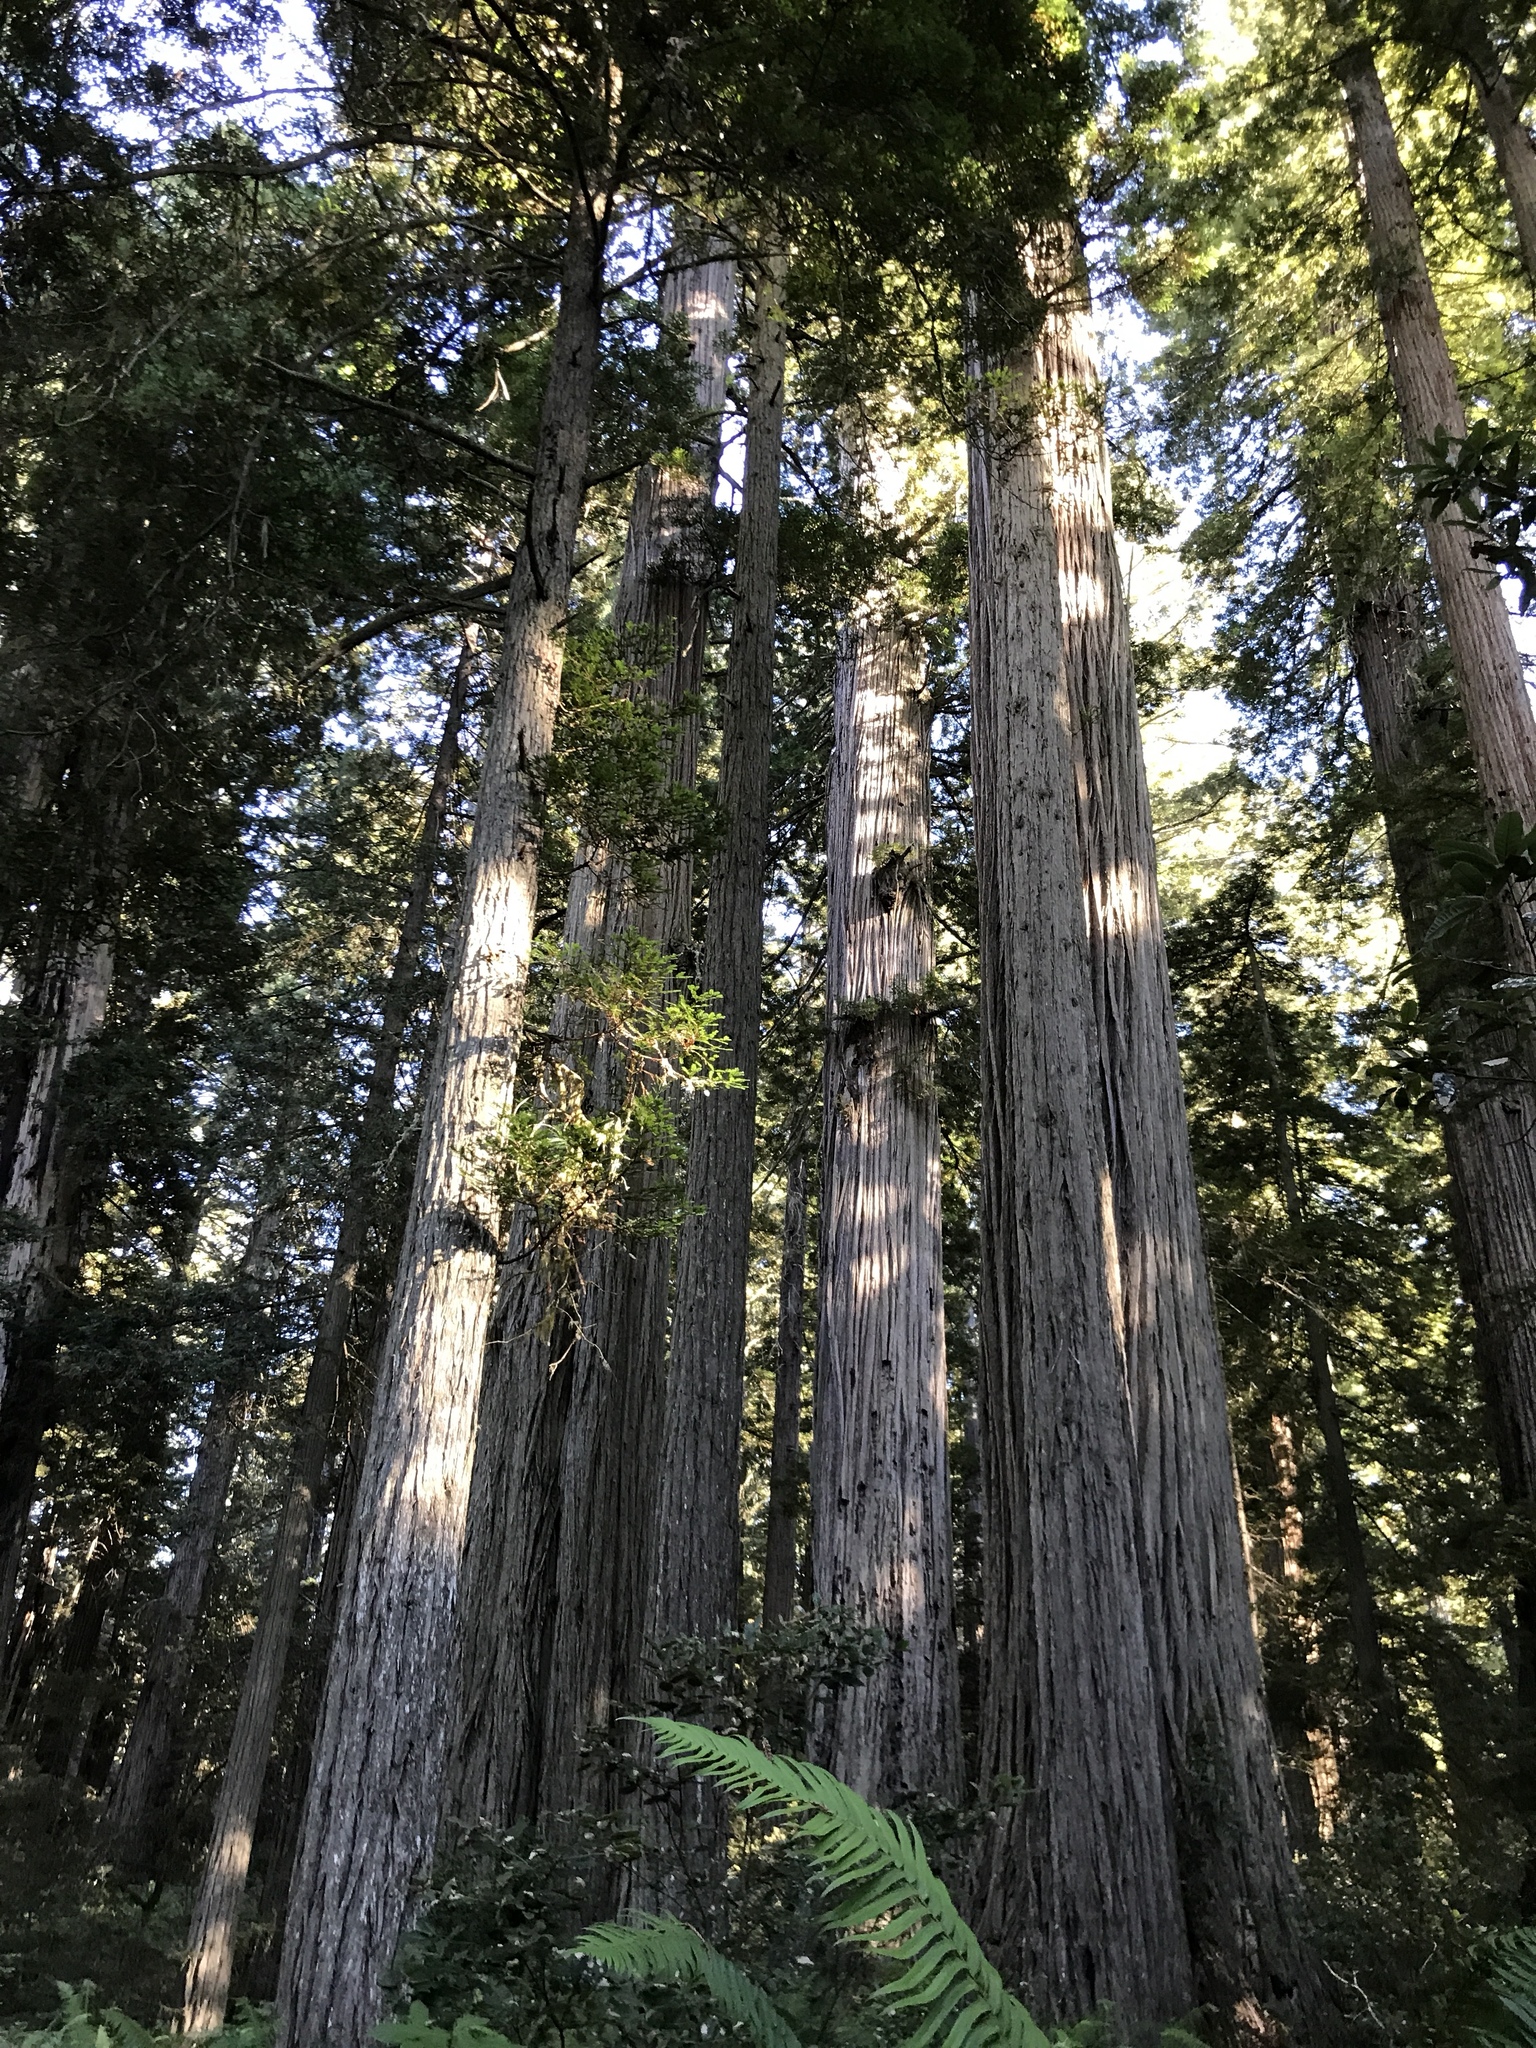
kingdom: Plantae
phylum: Tracheophyta
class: Pinopsida
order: Pinales
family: Cupressaceae
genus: Sequoia
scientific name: Sequoia sempervirens
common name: Coast redwood
